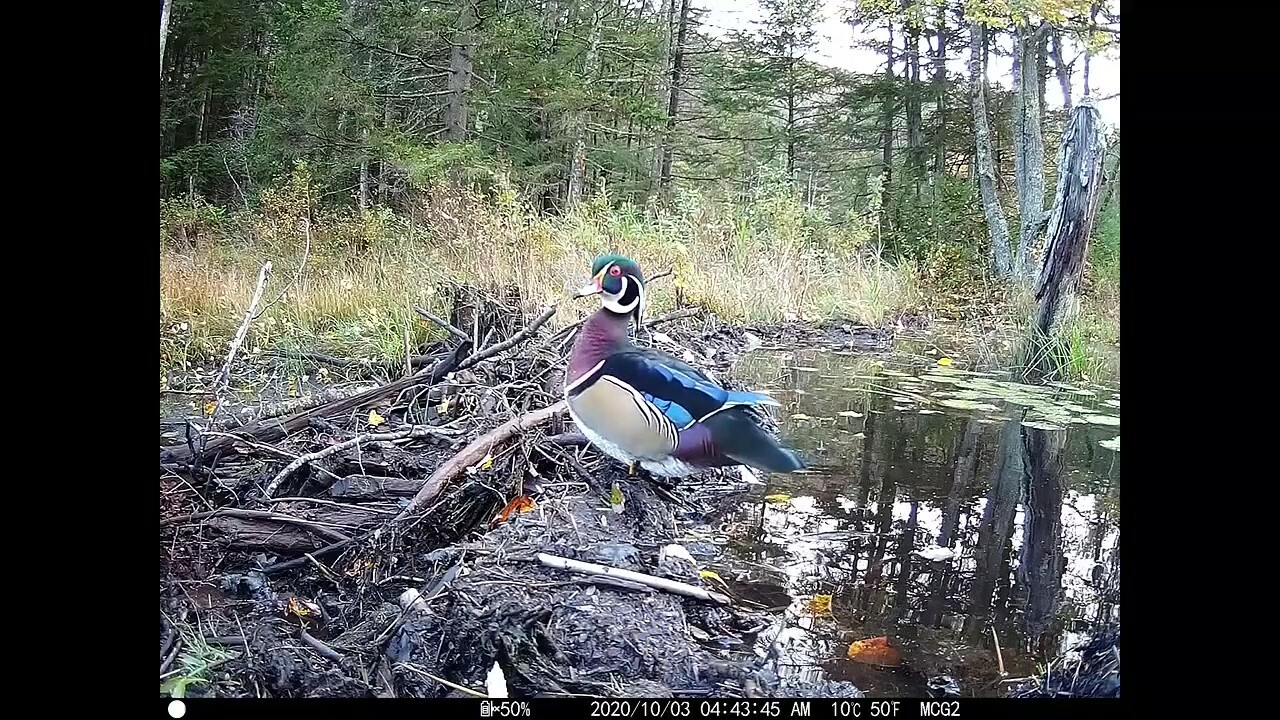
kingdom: Animalia
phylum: Chordata
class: Aves
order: Anseriformes
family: Anatidae
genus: Aix
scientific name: Aix sponsa
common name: Wood duck
